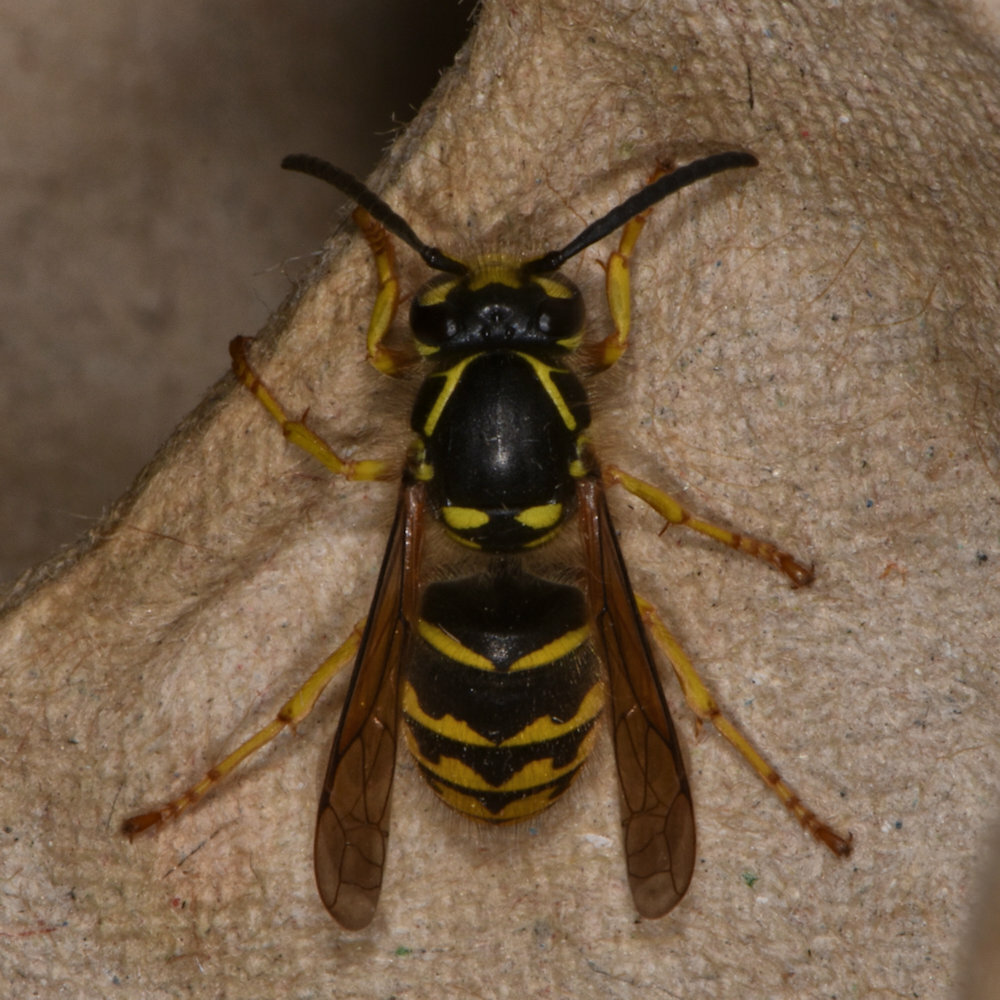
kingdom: Animalia
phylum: Arthropoda
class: Insecta
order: Hymenoptera
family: Vespidae
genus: Dolichovespula
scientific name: Dolichovespula arenaria
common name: Aerial yellowjacket
